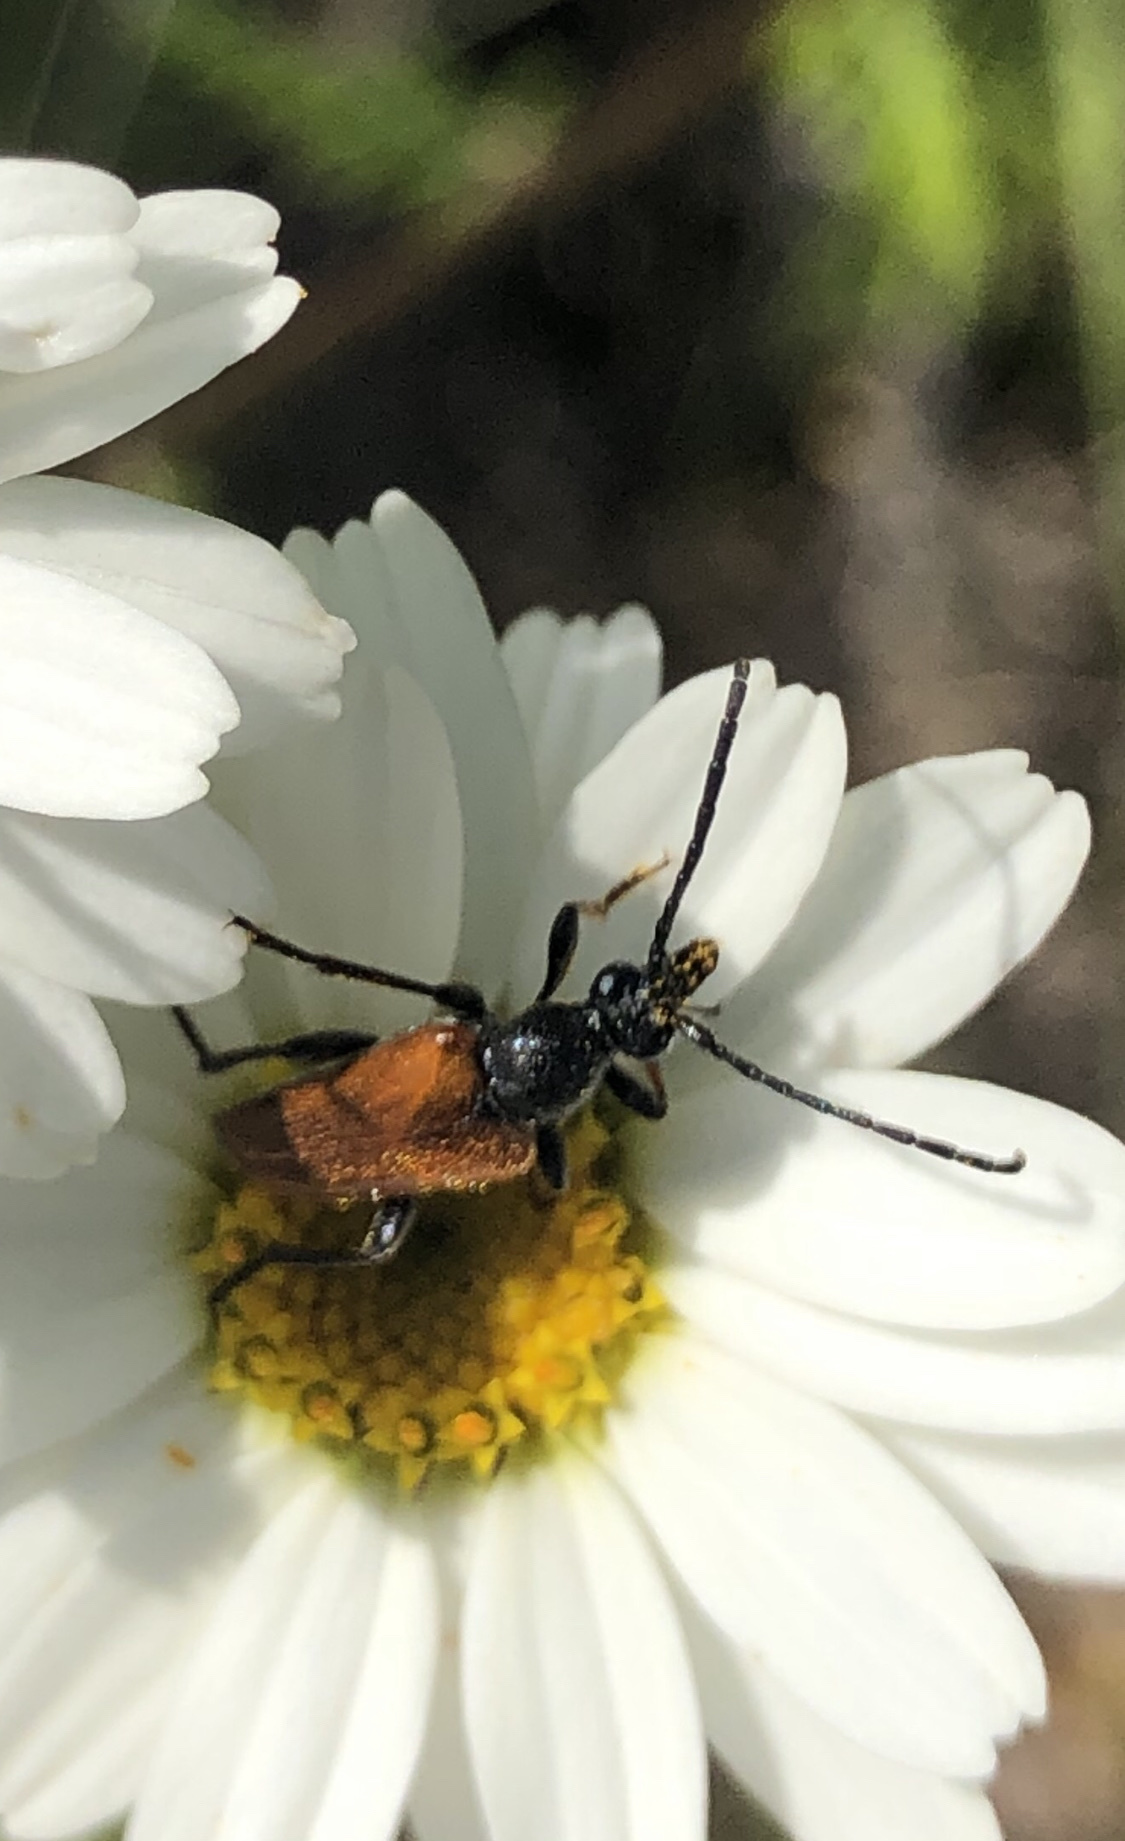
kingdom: Animalia
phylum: Arthropoda
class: Insecta
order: Coleoptera
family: Cerambycidae
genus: Pseudovadonia
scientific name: Pseudovadonia livida
